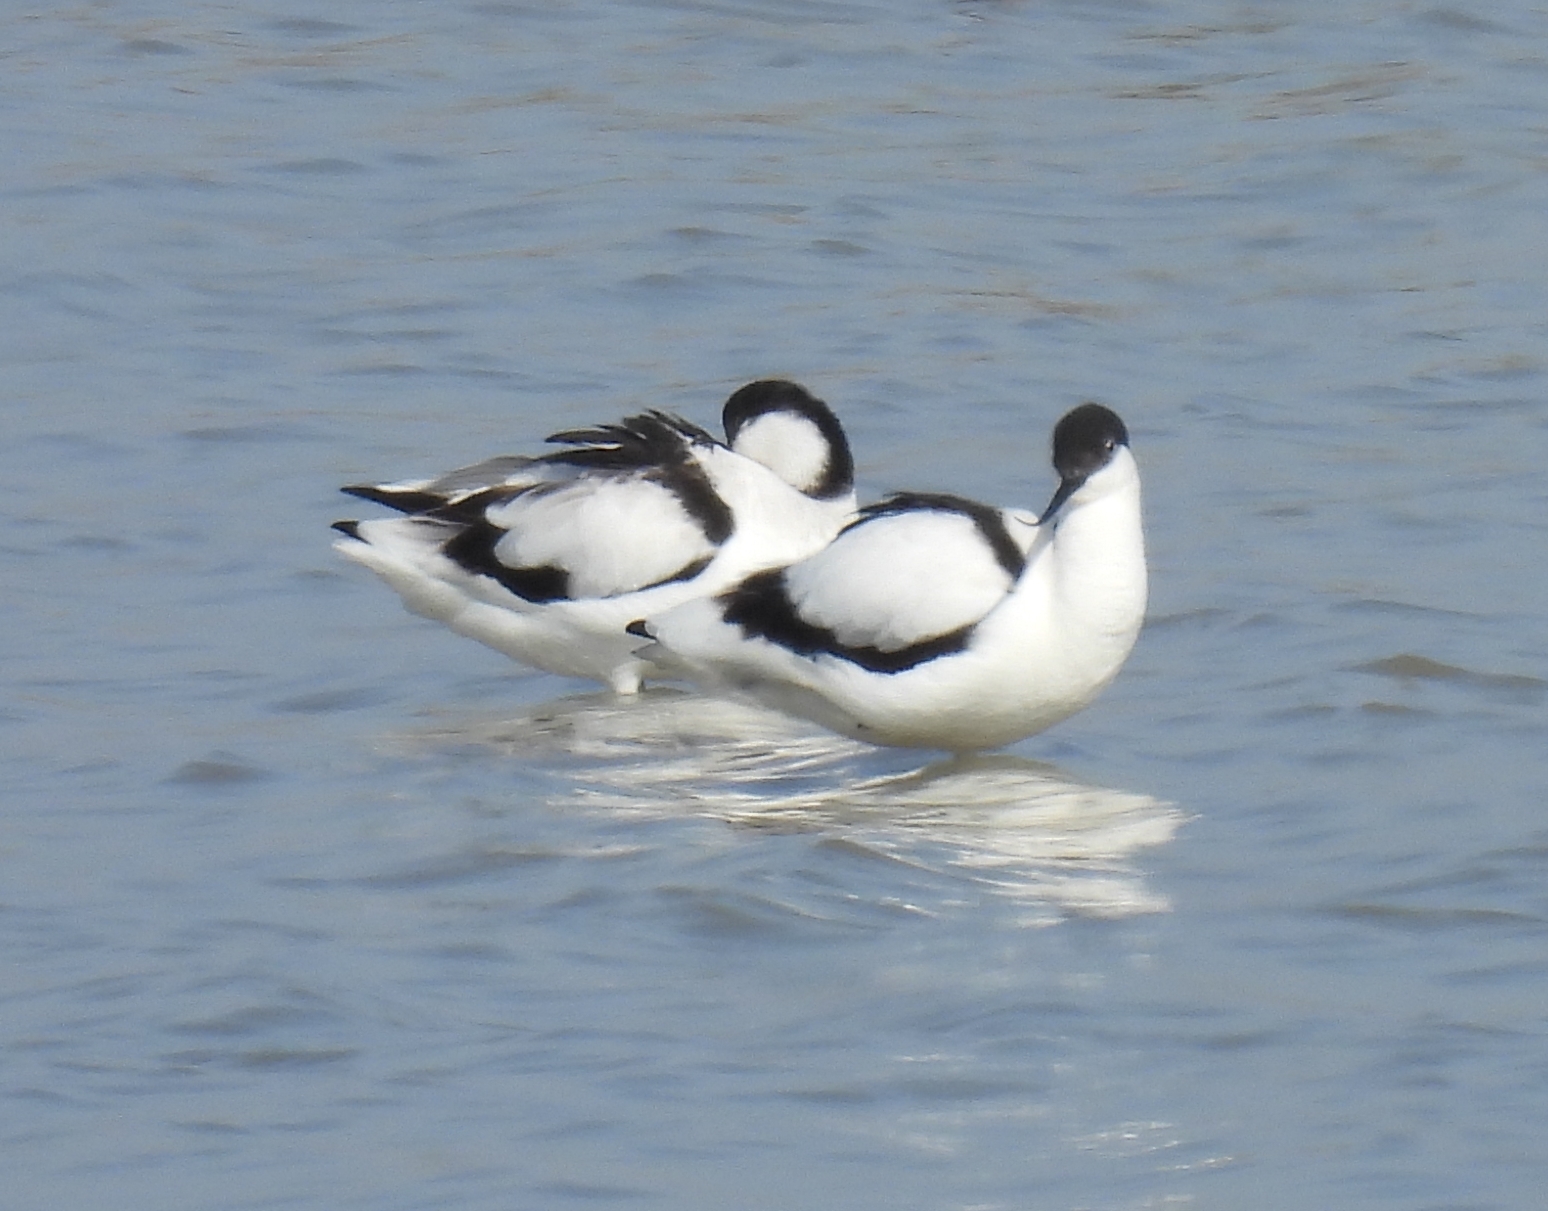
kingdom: Animalia
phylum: Chordata
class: Aves
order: Charadriiformes
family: Recurvirostridae
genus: Recurvirostra
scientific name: Recurvirostra avosetta
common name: Pied avocet
